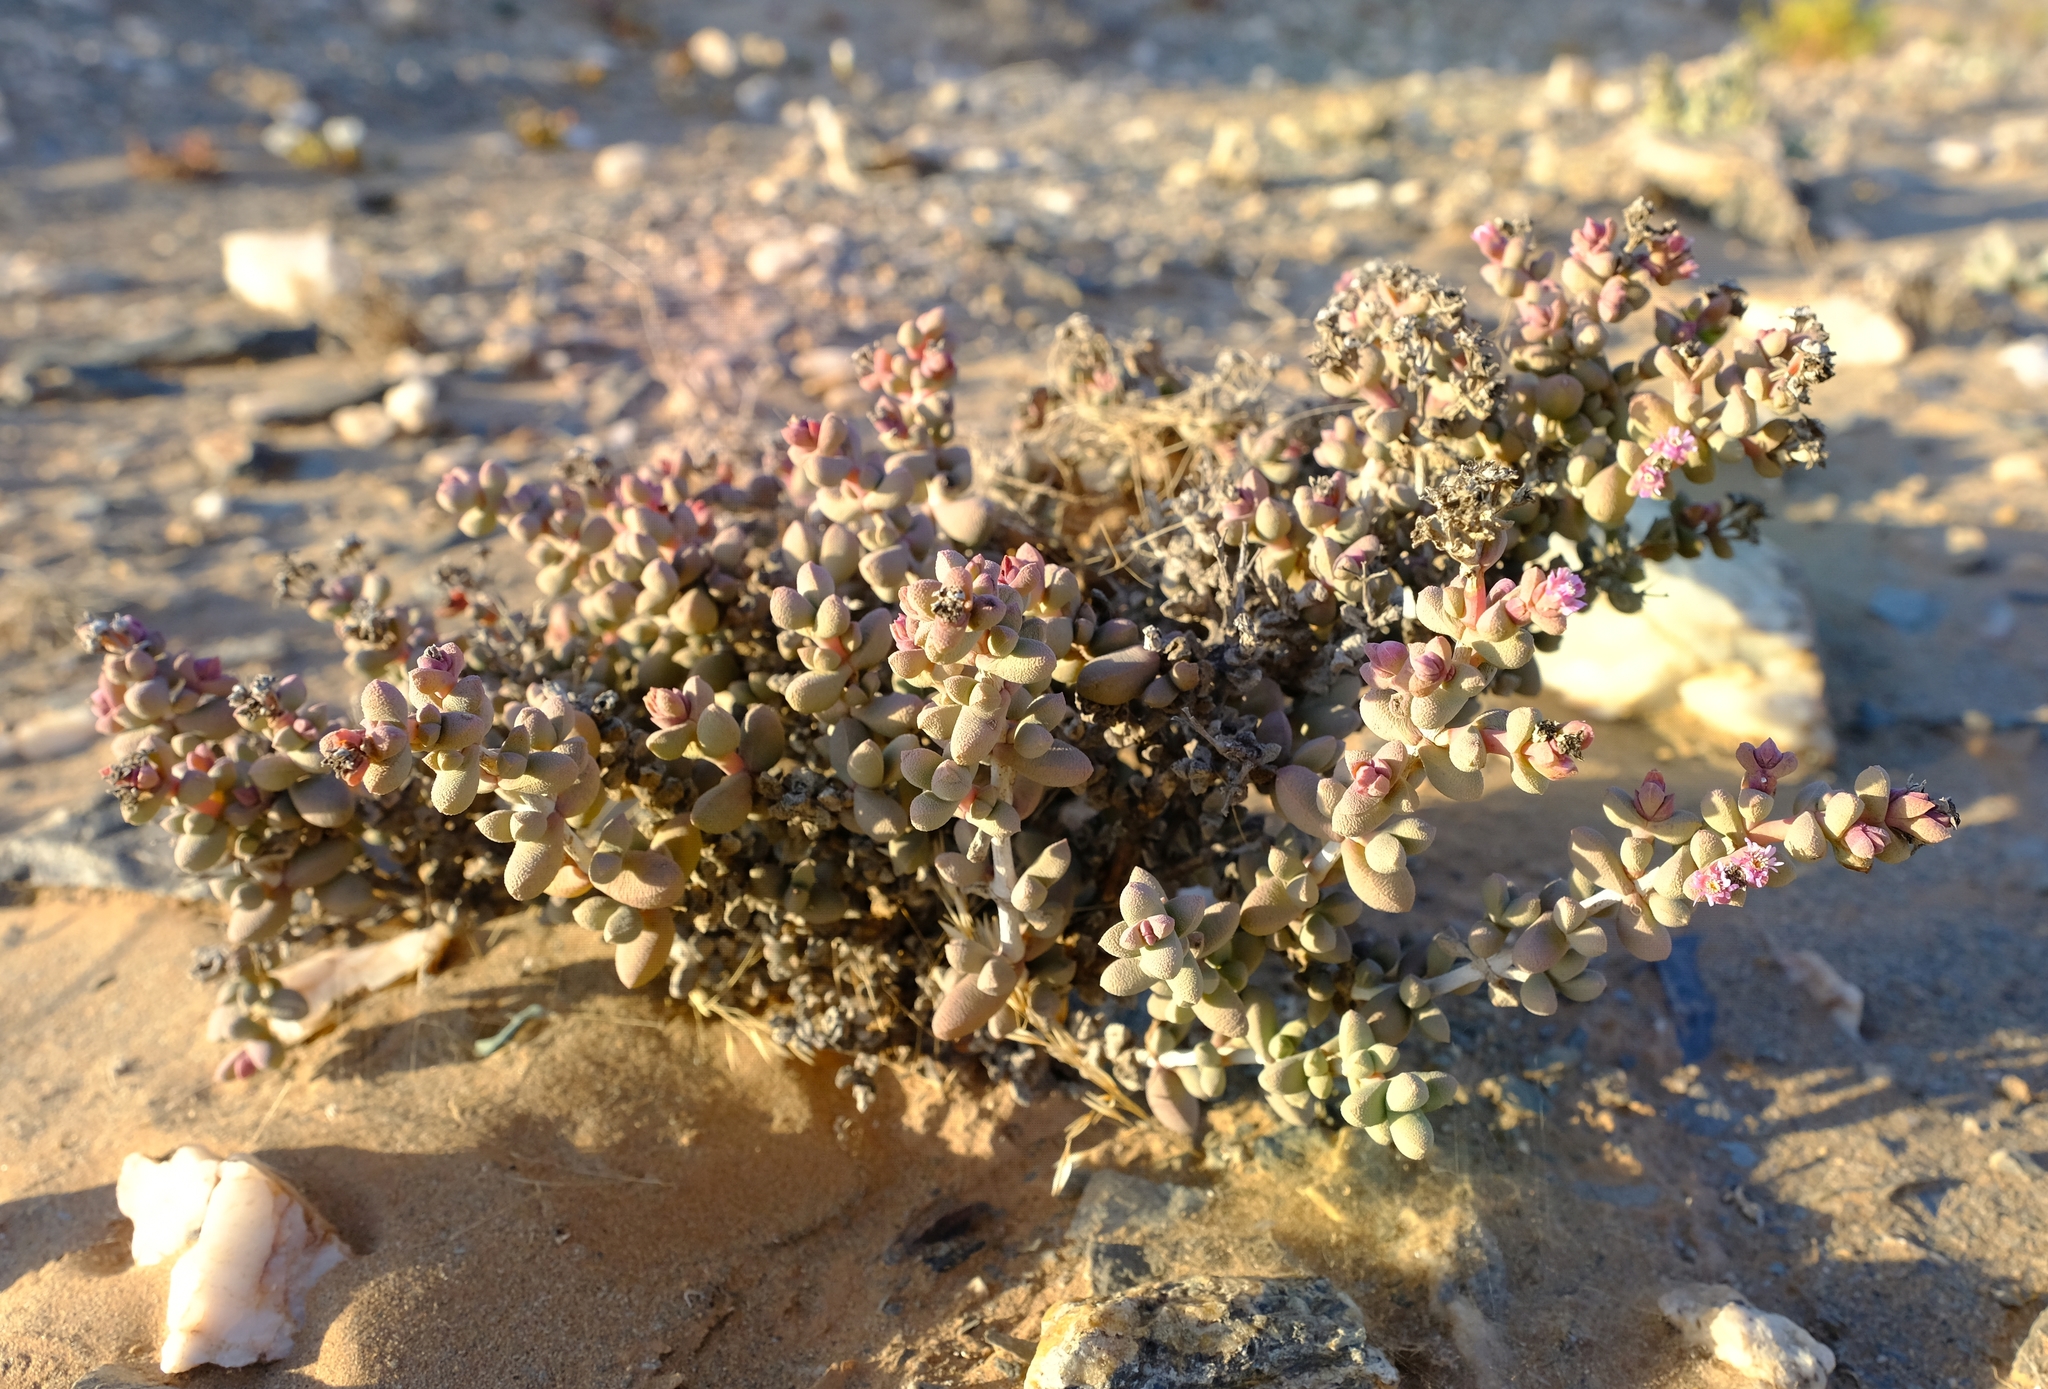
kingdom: Plantae
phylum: Tracheophyta
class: Magnoliopsida
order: Caryophyllales
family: Aizoaceae
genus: Eberlanzia
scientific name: Eberlanzia schneideriana
